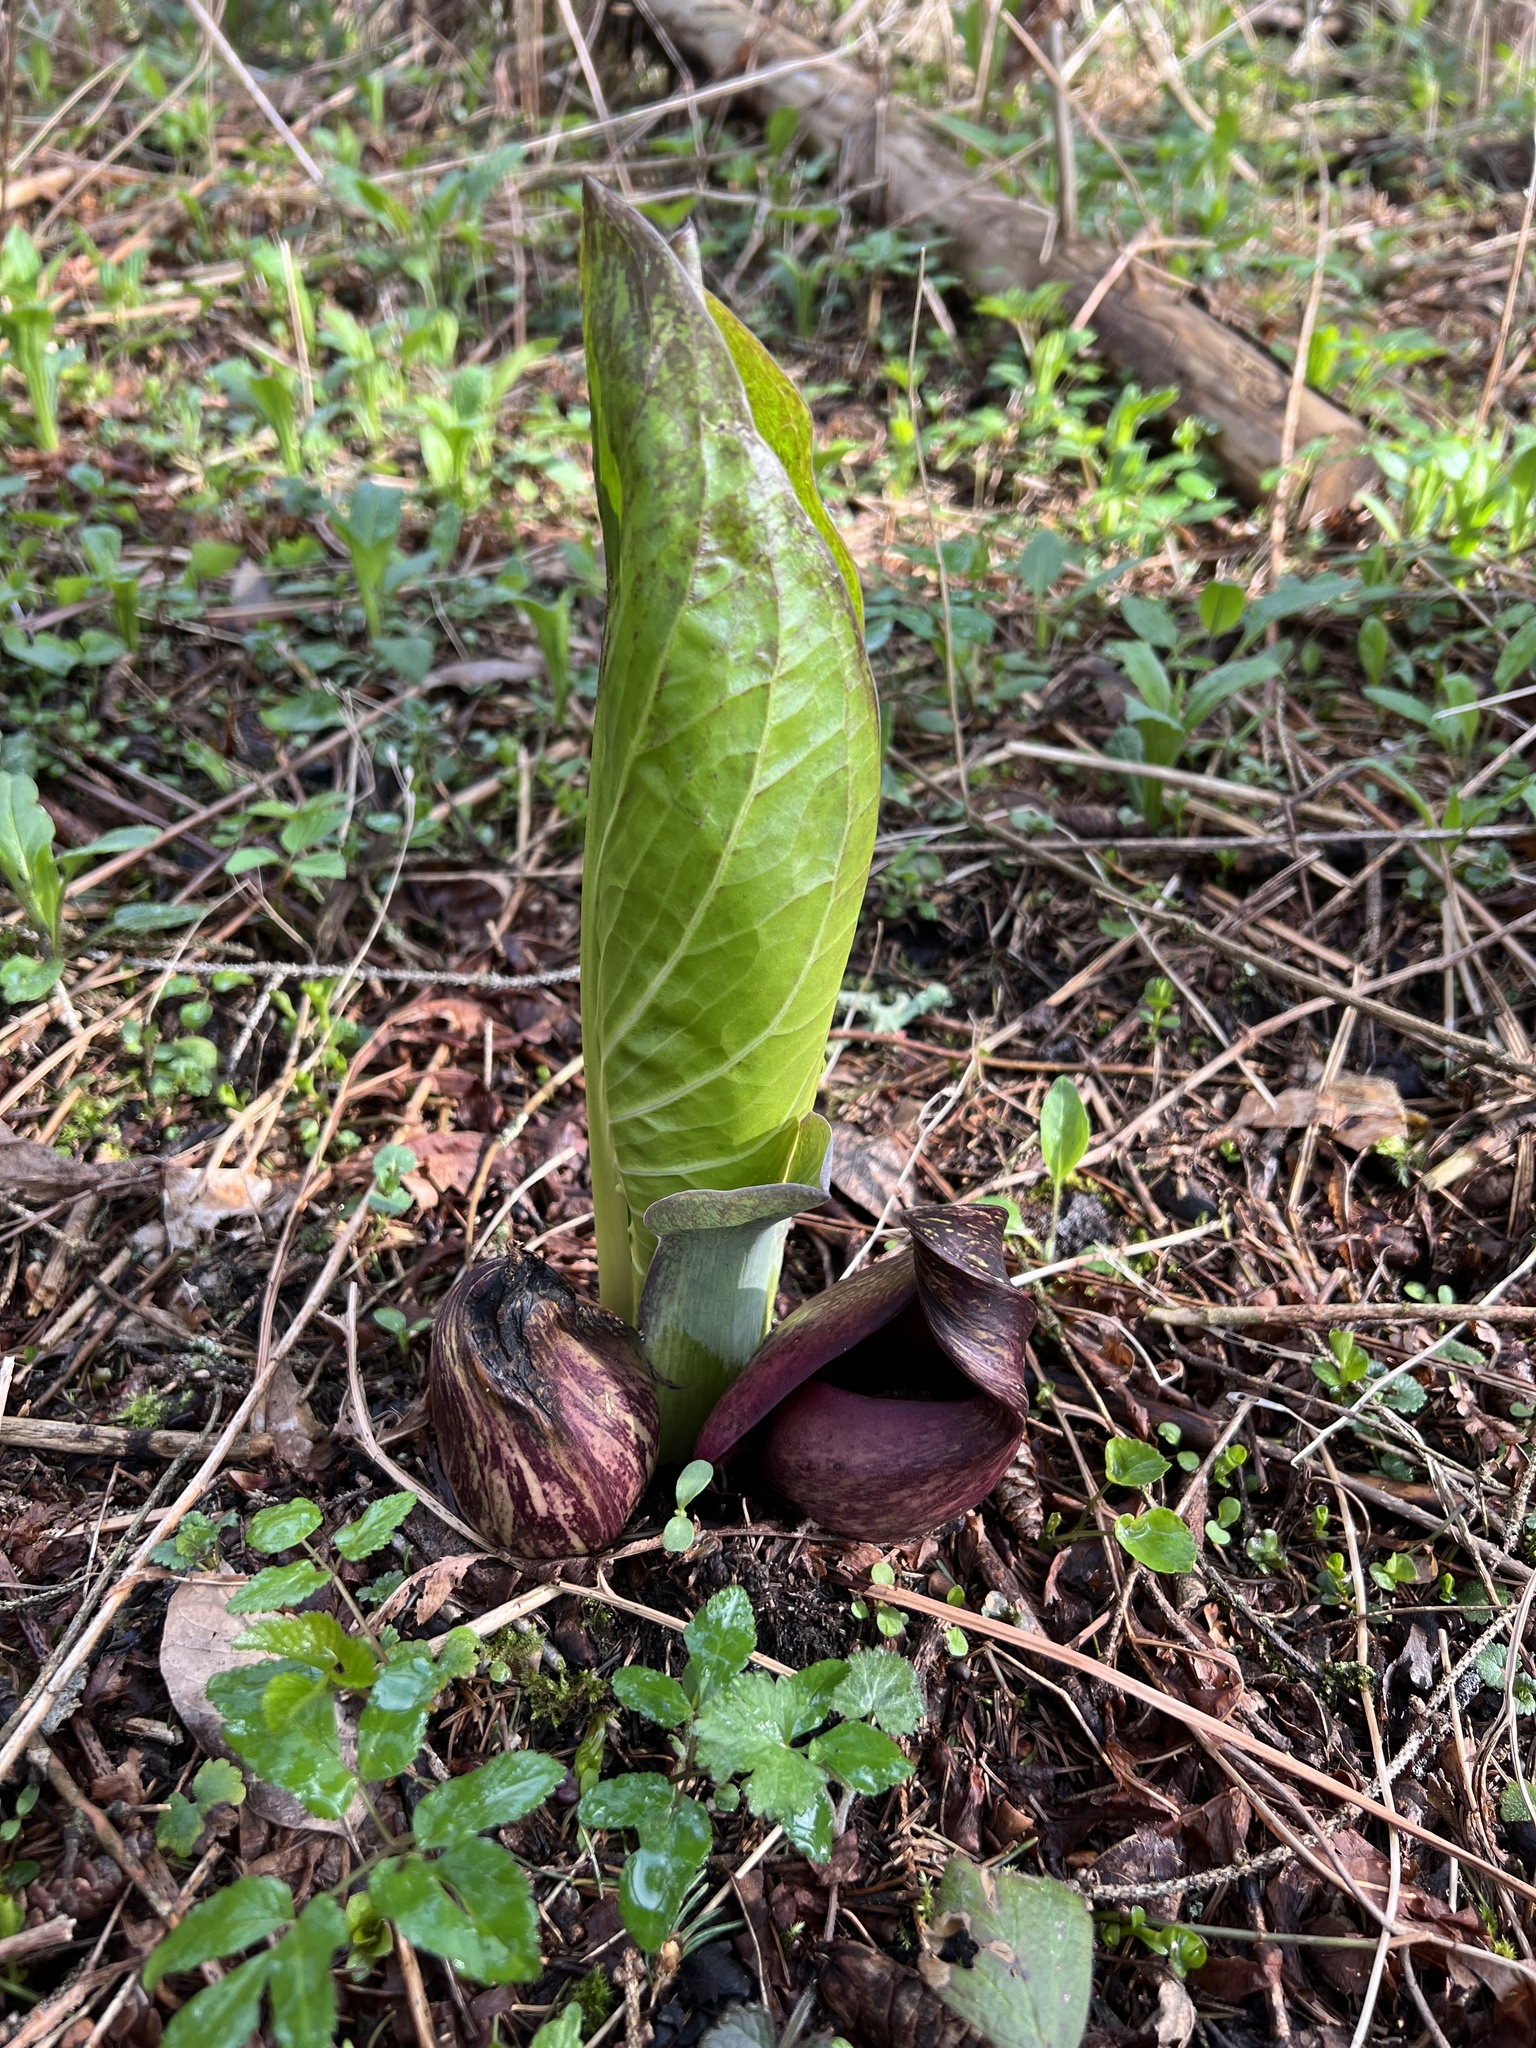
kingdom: Plantae
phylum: Tracheophyta
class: Liliopsida
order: Alismatales
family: Araceae
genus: Symplocarpus
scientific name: Symplocarpus foetidus
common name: Eastern skunk cabbage
